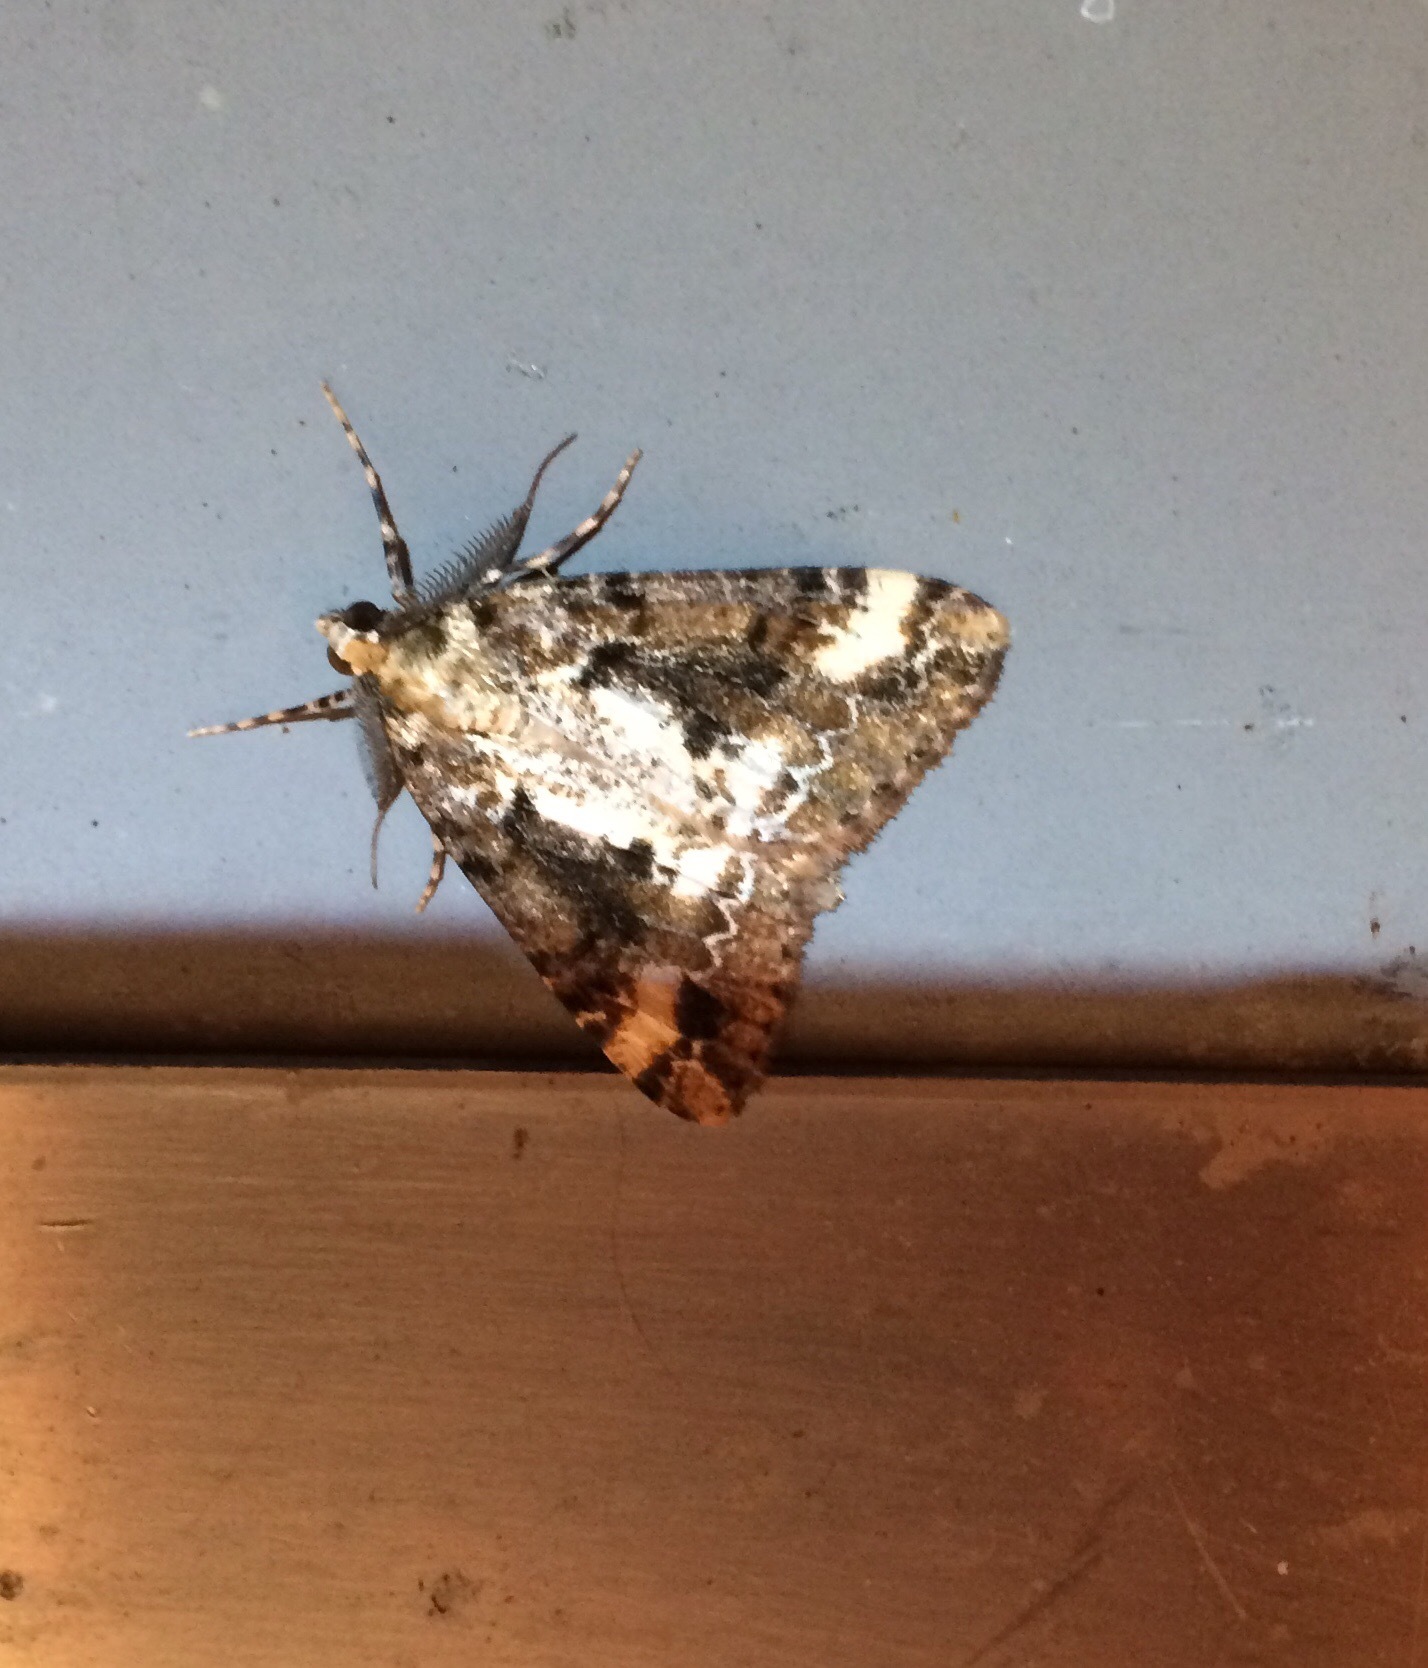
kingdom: Animalia
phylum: Arthropoda
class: Insecta
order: Lepidoptera
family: Geometridae
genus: Pseudocoremia
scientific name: Pseudocoremia leucelaea
